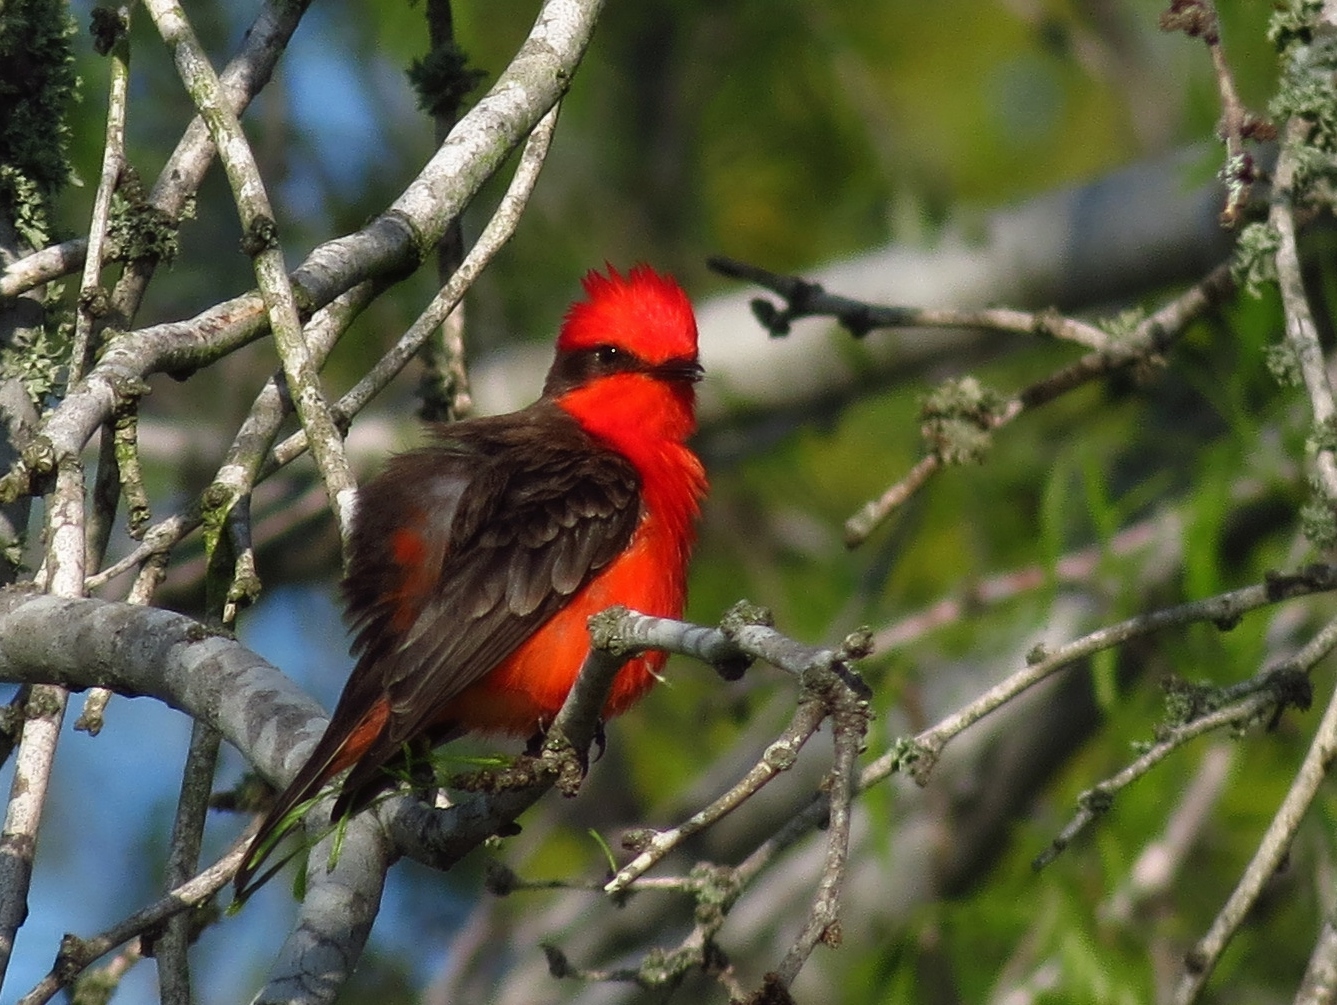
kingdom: Animalia
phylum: Chordata
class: Aves
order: Passeriformes
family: Tyrannidae
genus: Pyrocephalus
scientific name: Pyrocephalus rubinus
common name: Vermilion flycatcher
